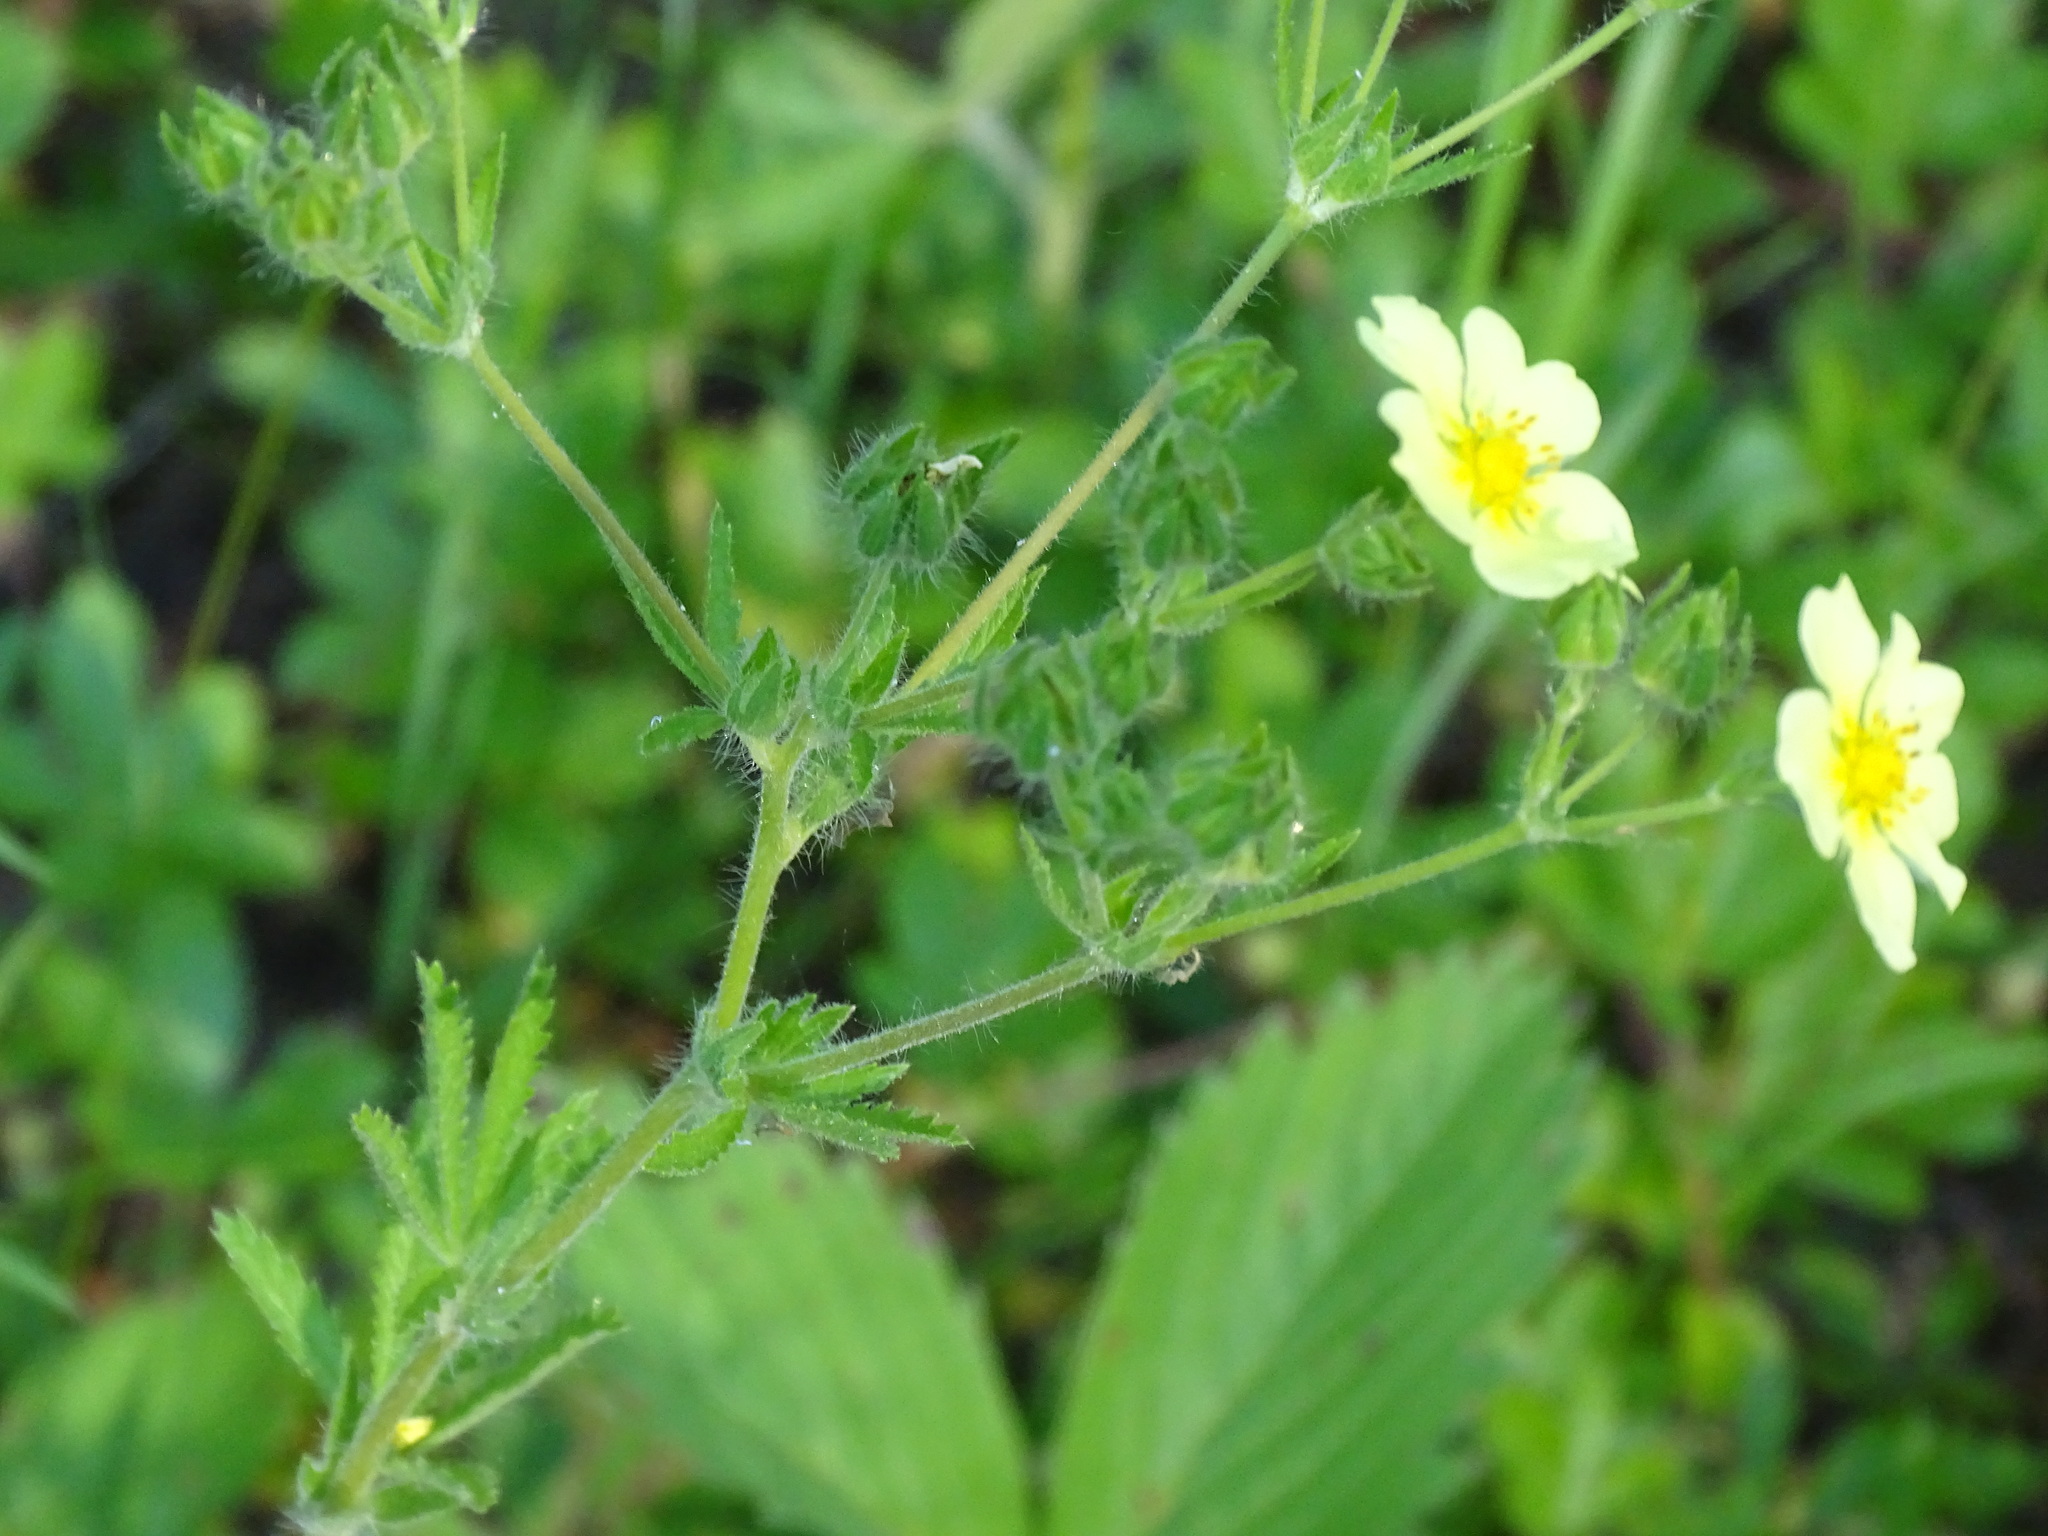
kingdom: Plantae
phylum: Tracheophyta
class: Magnoliopsida
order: Rosales
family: Rosaceae
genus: Potentilla
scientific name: Potentilla recta
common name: Sulphur cinquefoil
